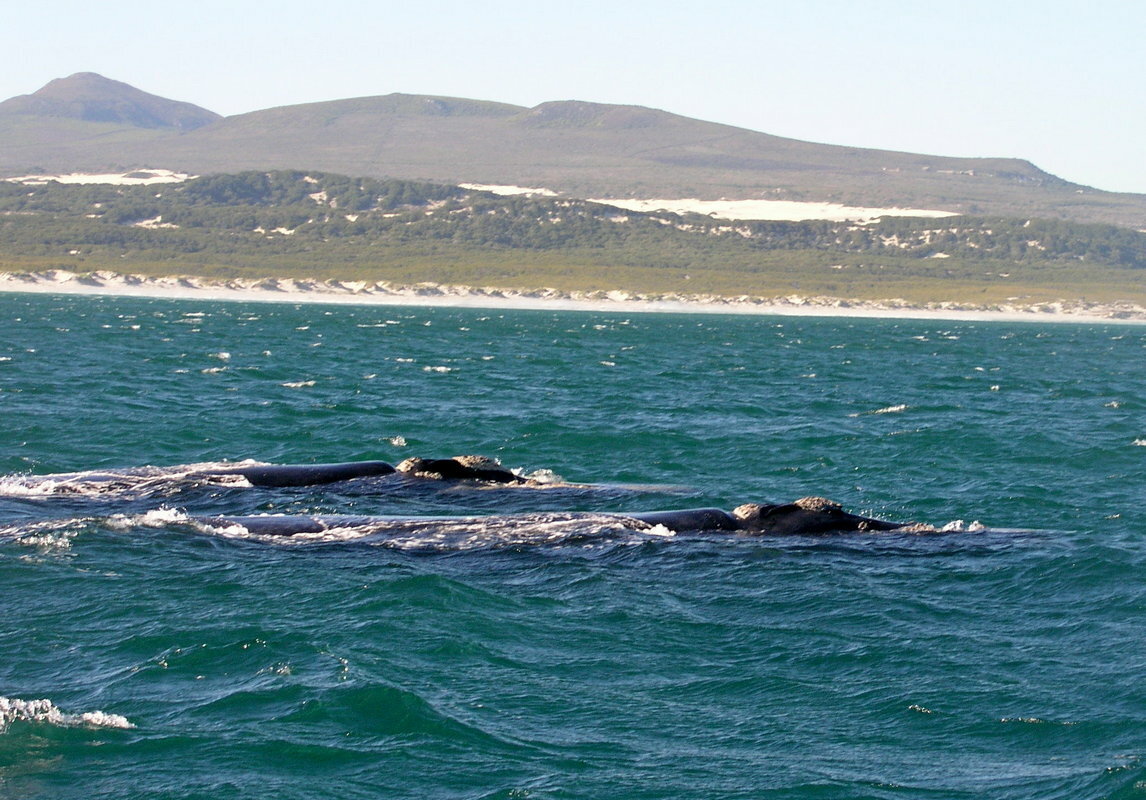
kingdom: Animalia
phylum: Chordata
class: Mammalia
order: Cetacea
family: Balaenidae
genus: Eubalaena
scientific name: Eubalaena australis
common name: Southern right whale
